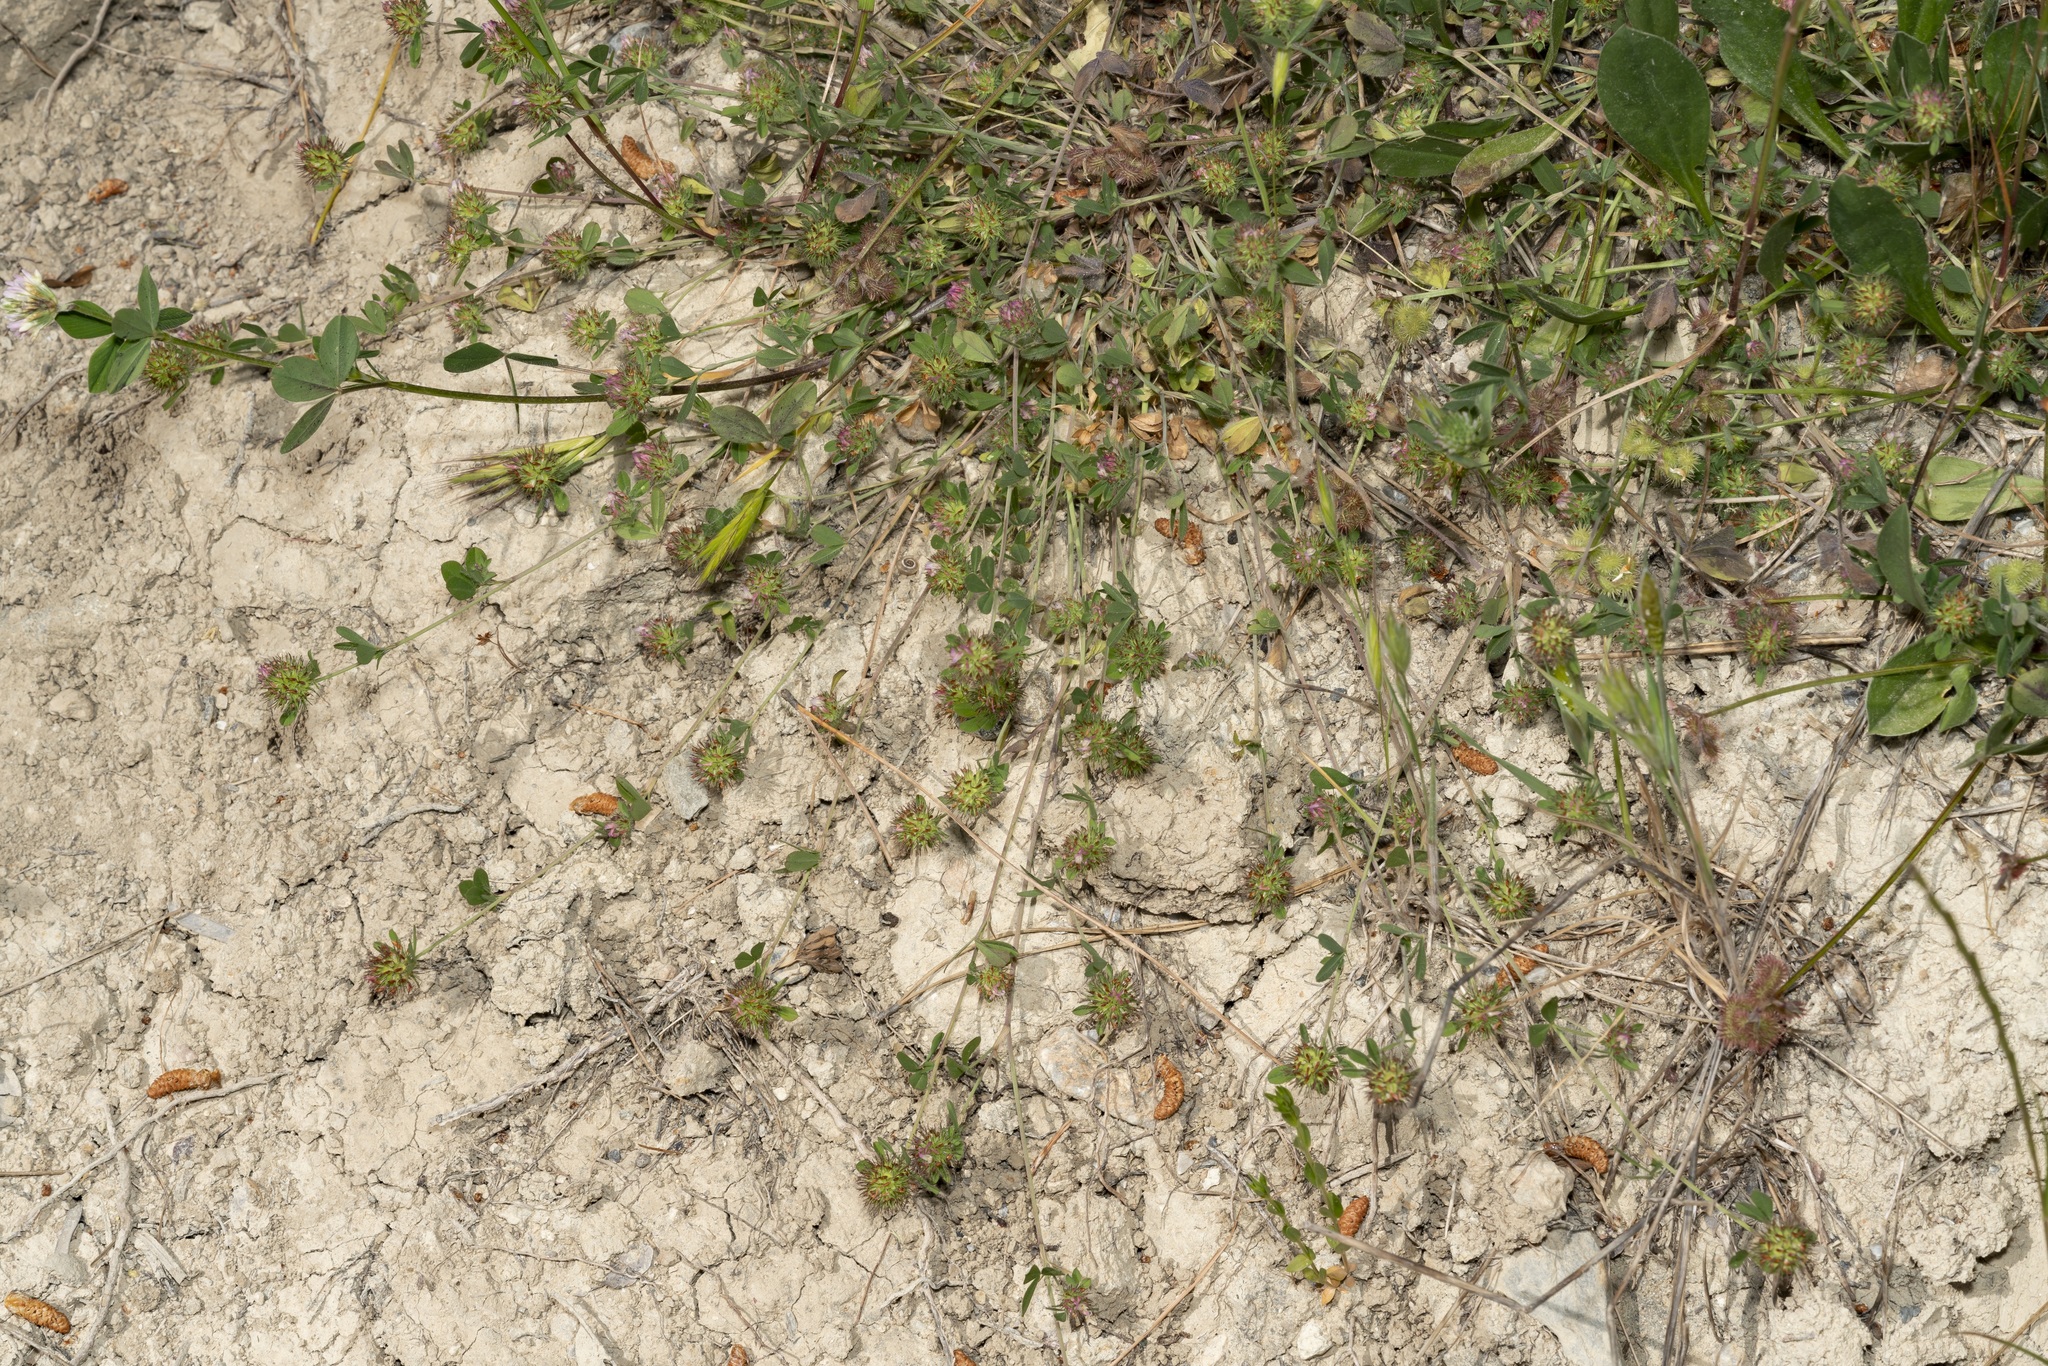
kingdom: Plantae
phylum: Tracheophyta
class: Magnoliopsida
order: Fabales
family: Fabaceae
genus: Trifolium
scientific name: Trifolium lappaceum
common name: Bur clover
